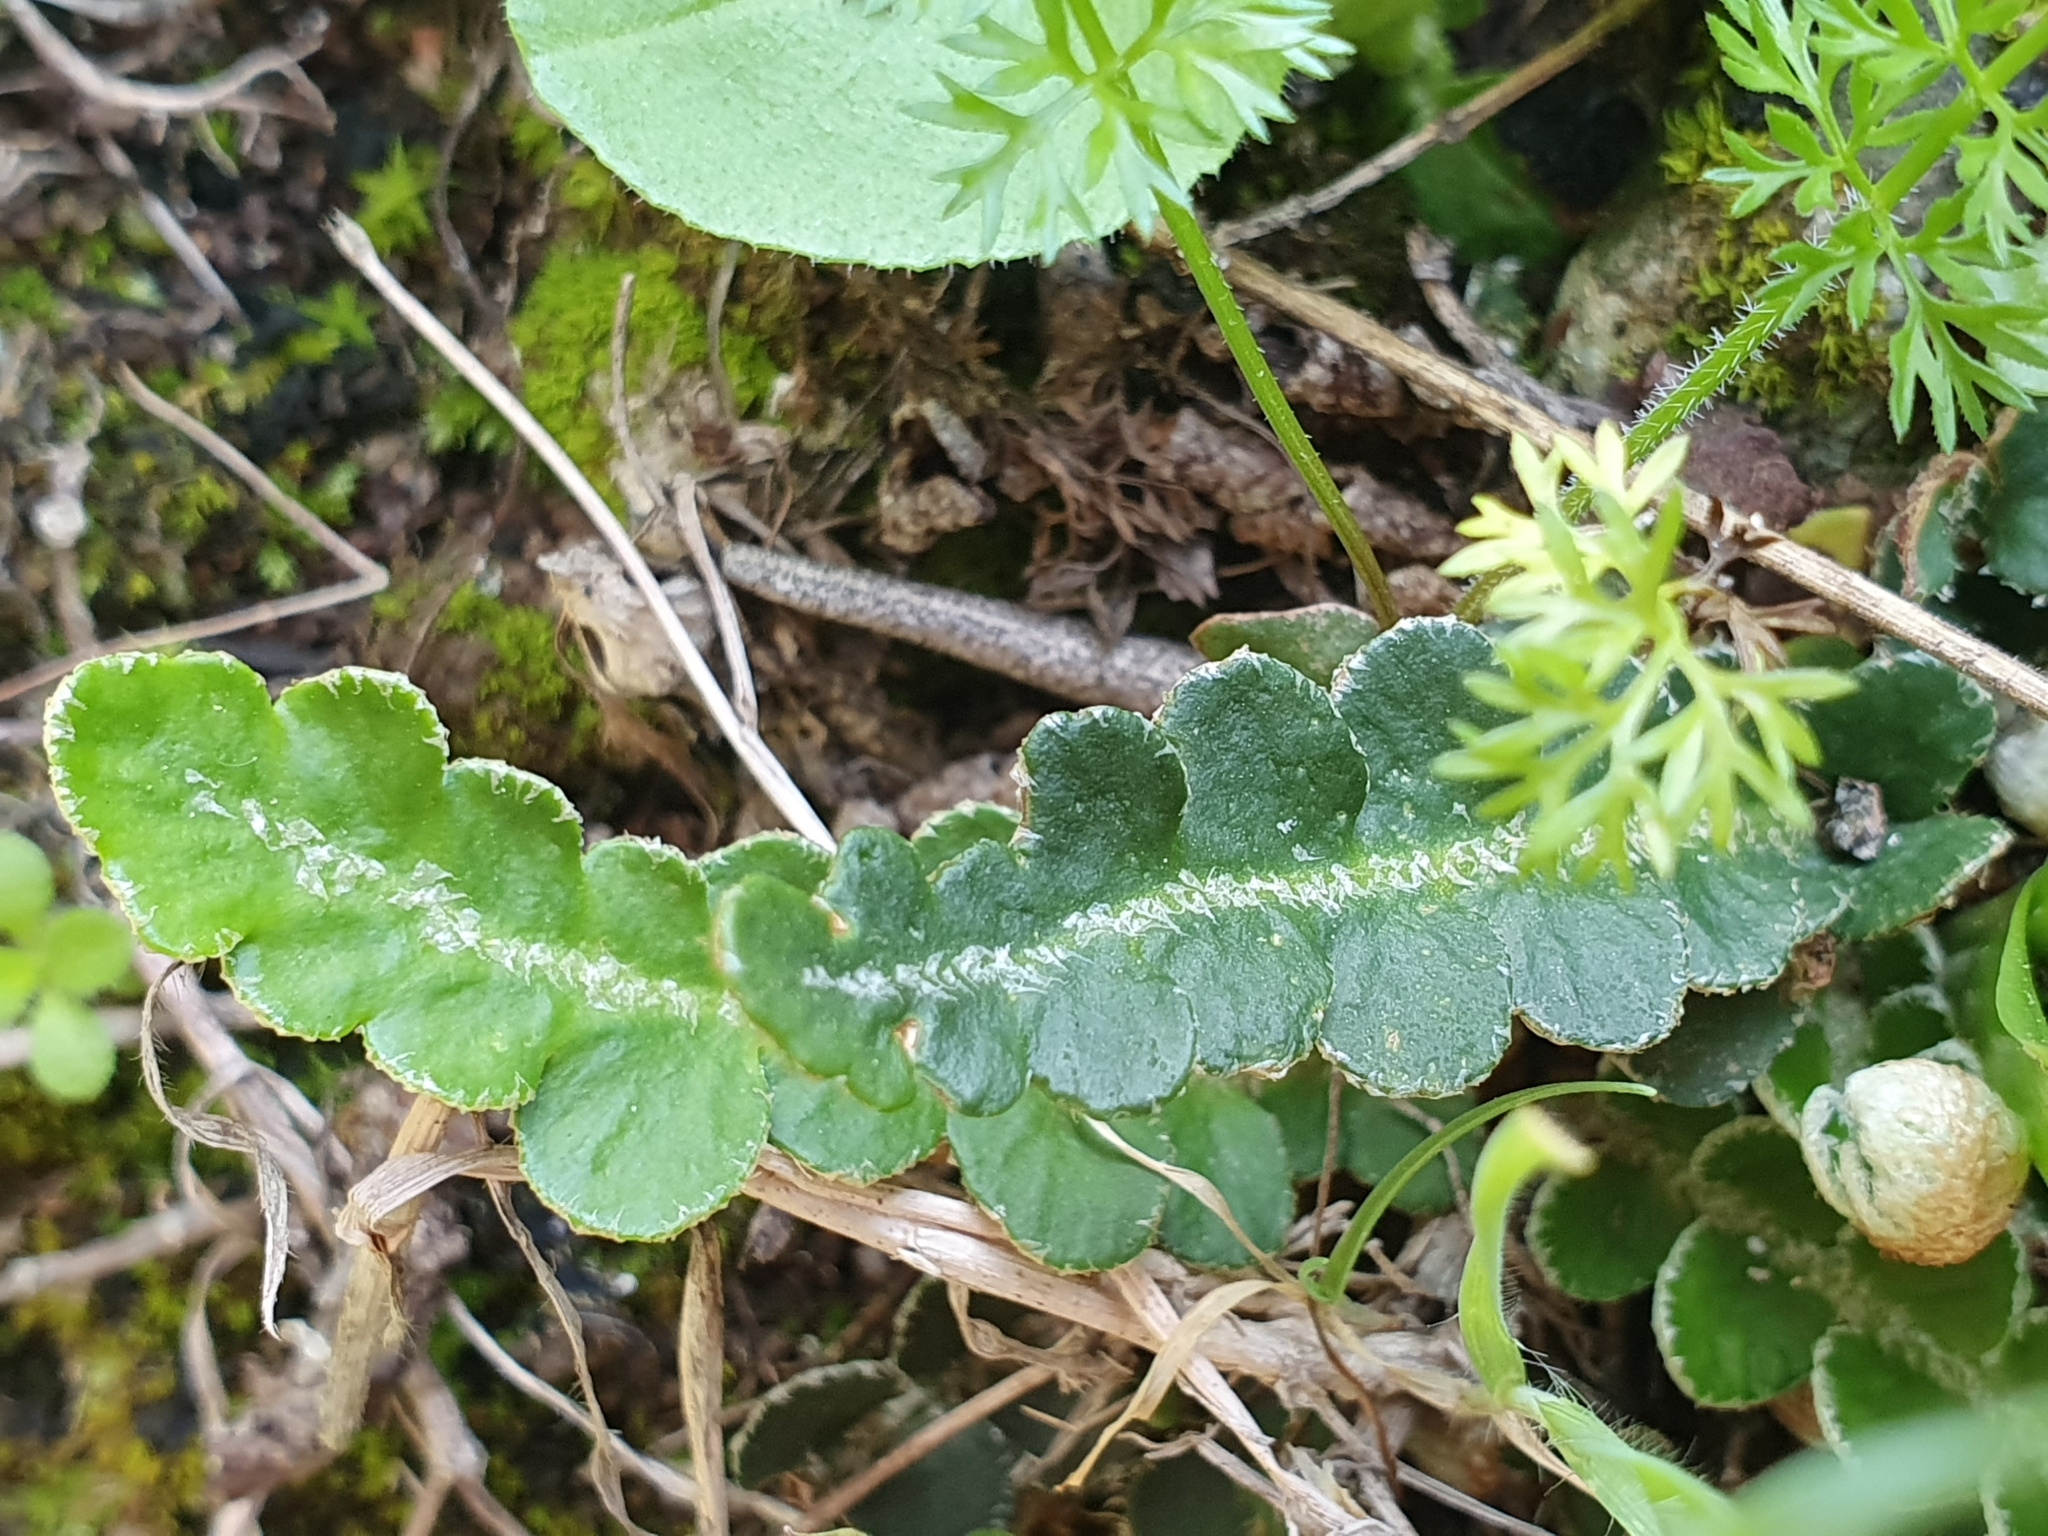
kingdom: Plantae
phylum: Tracheophyta
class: Polypodiopsida
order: Polypodiales
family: Aspleniaceae
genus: Asplenium
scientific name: Asplenium ceterach
